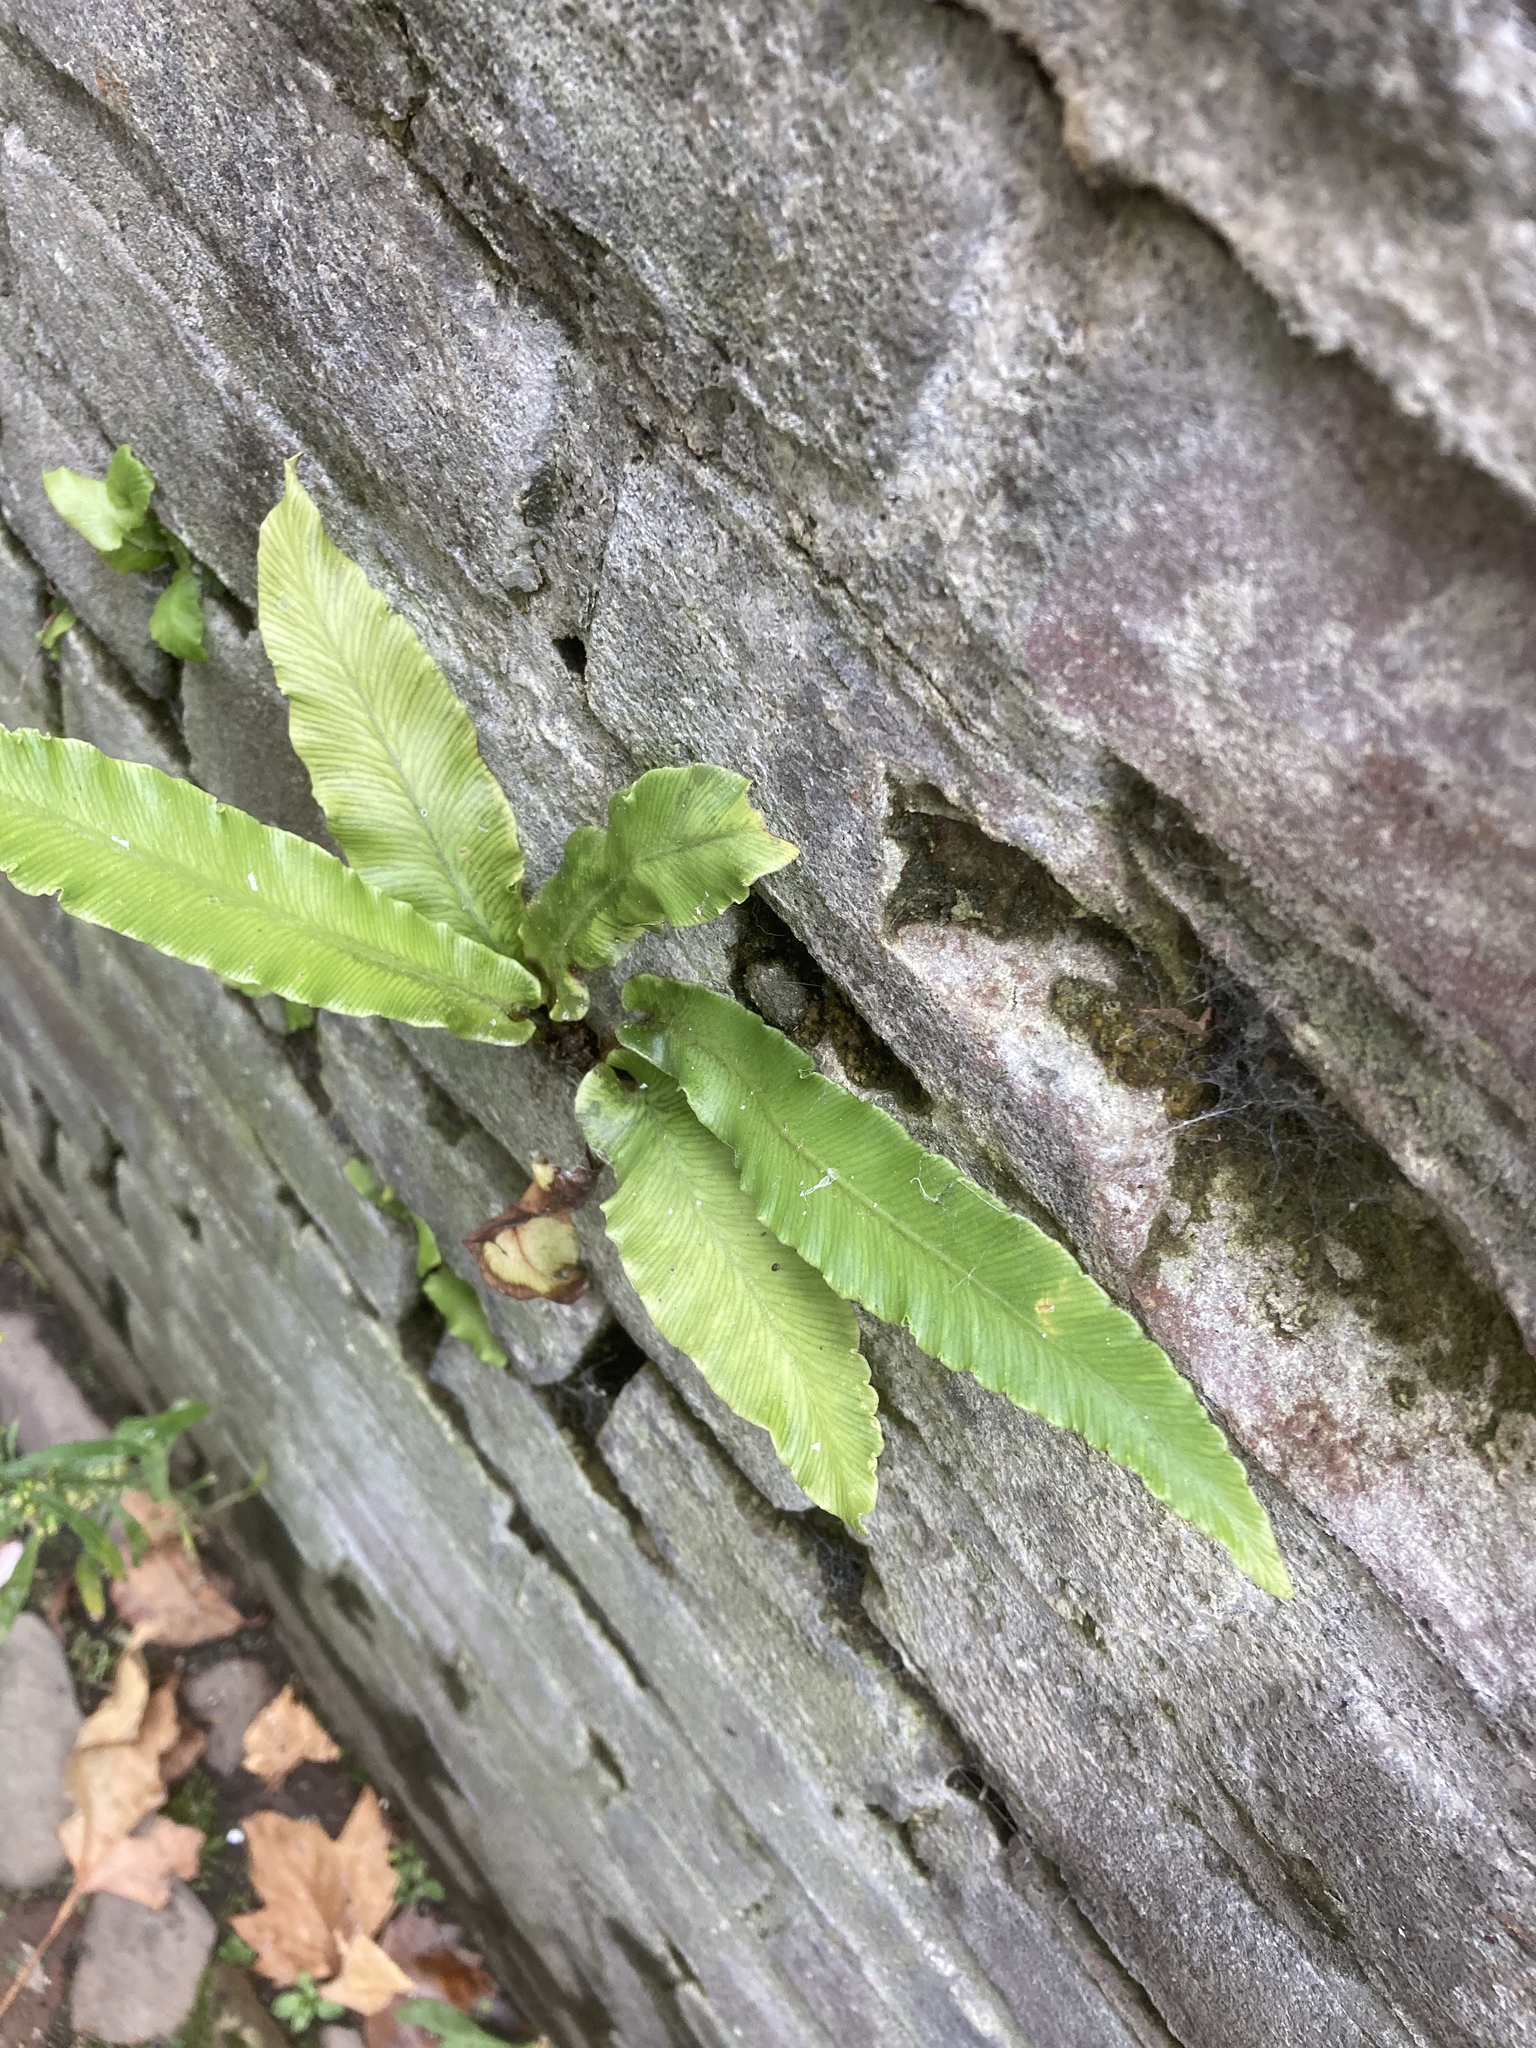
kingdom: Plantae
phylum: Tracheophyta
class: Polypodiopsida
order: Polypodiales
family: Aspleniaceae
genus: Asplenium
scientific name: Asplenium scolopendrium
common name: Hart's-tongue fern
